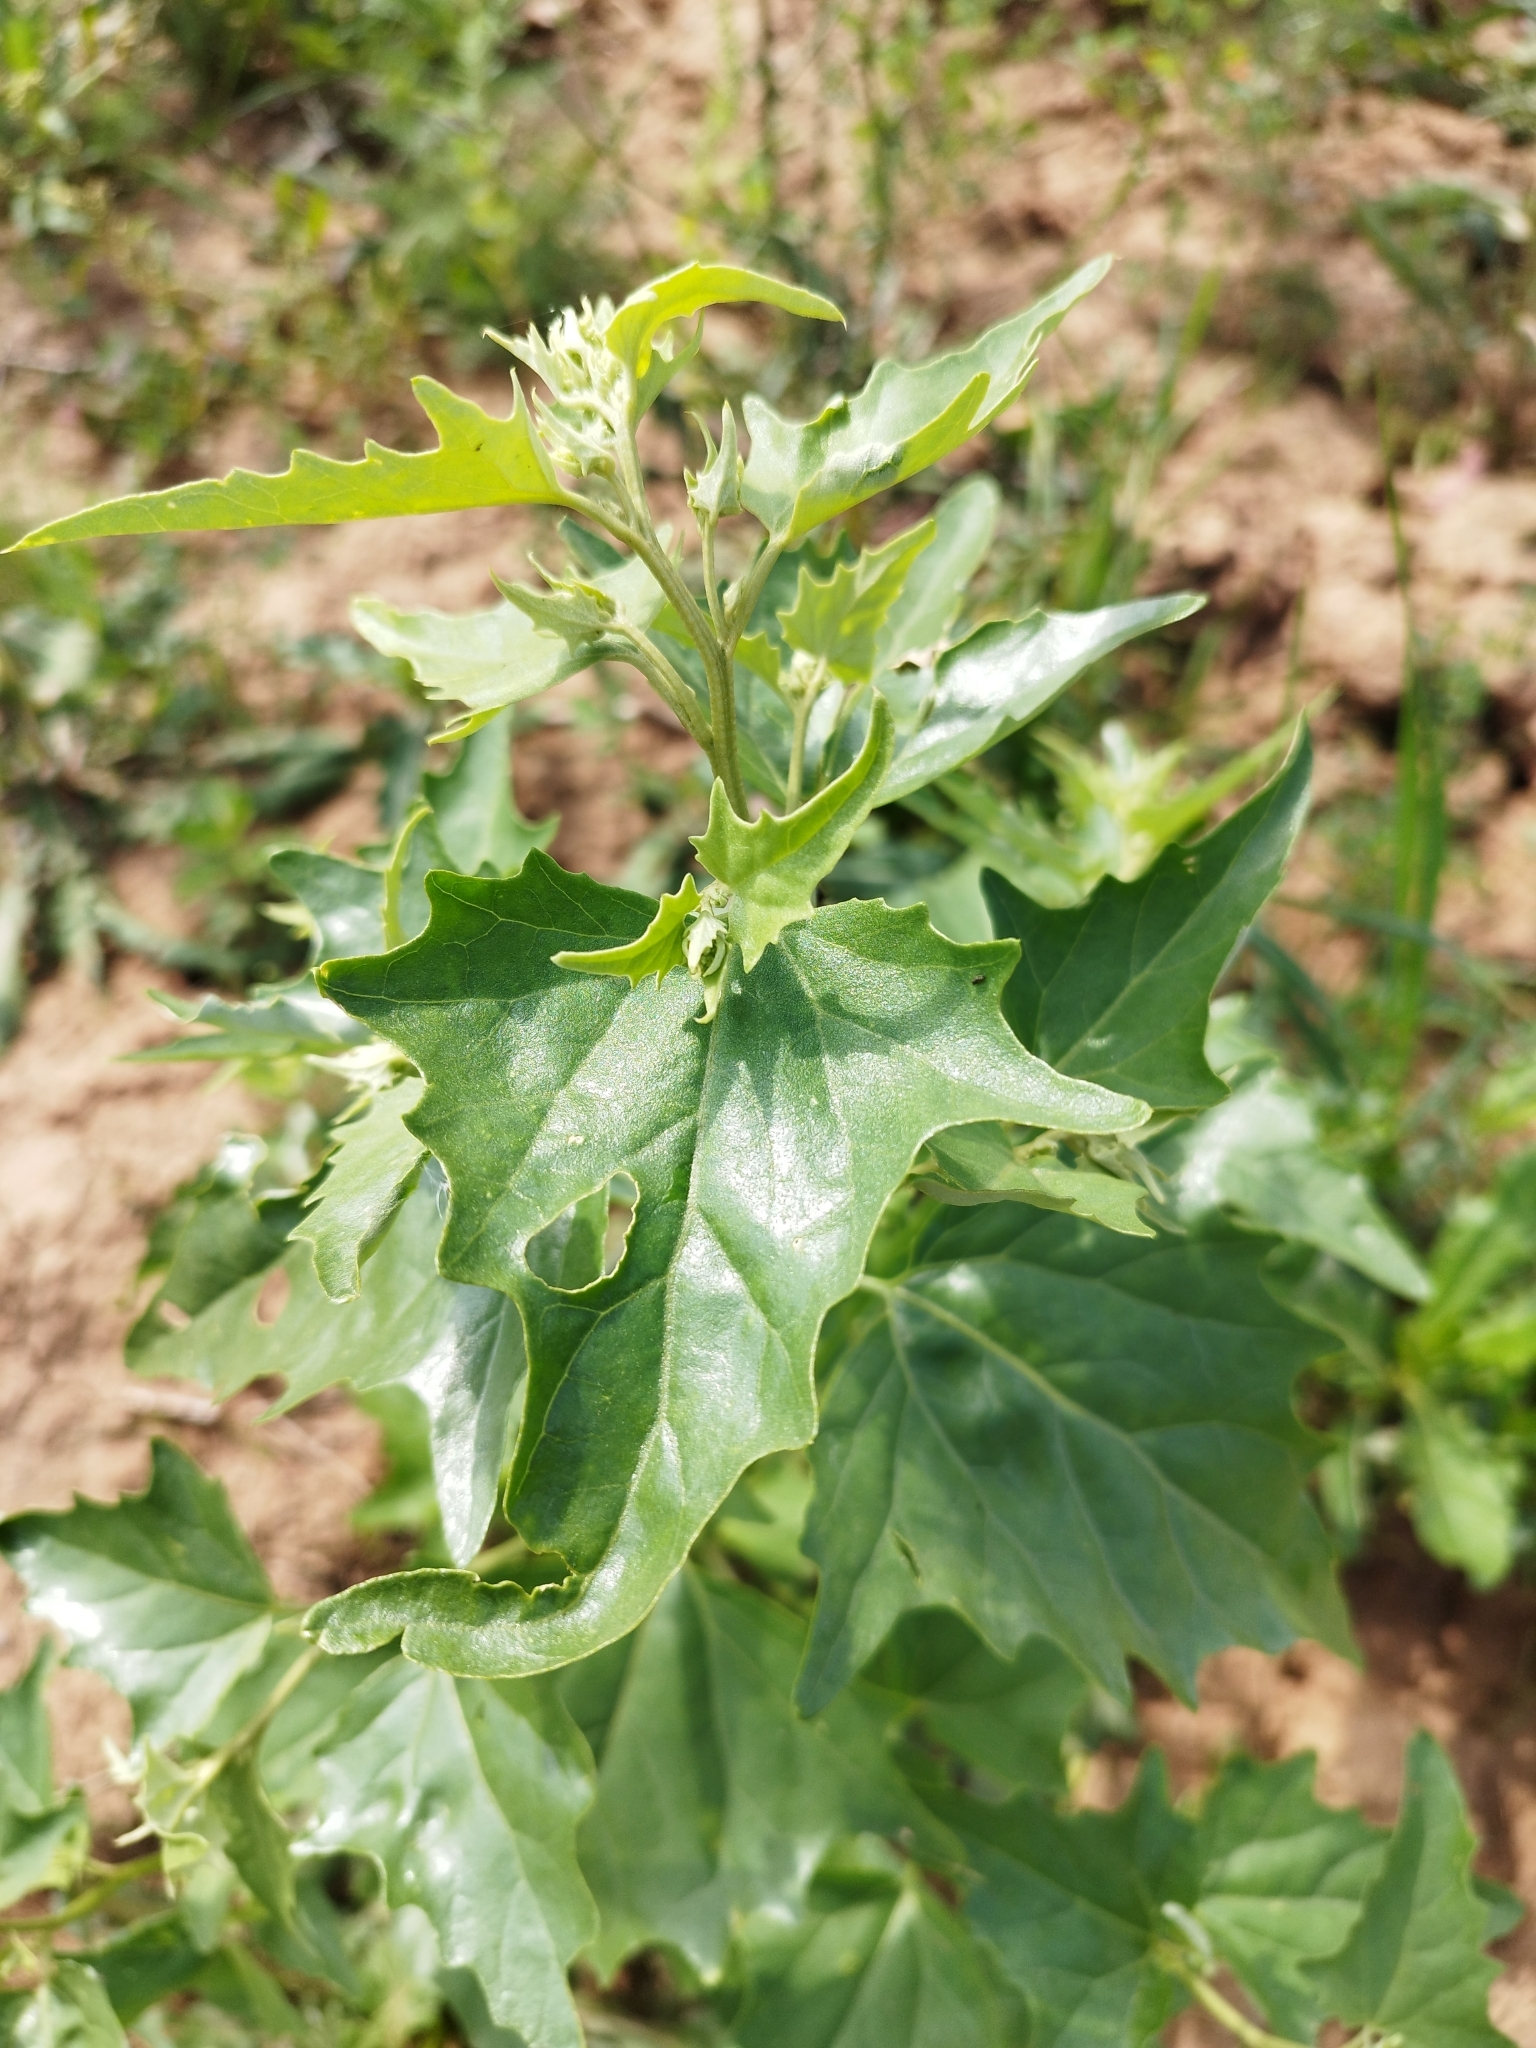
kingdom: Plantae
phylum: Tracheophyta
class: Magnoliopsida
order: Caryophyllales
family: Amaranthaceae
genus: Atriplex
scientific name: Atriplex sagittata
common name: Purple orache
